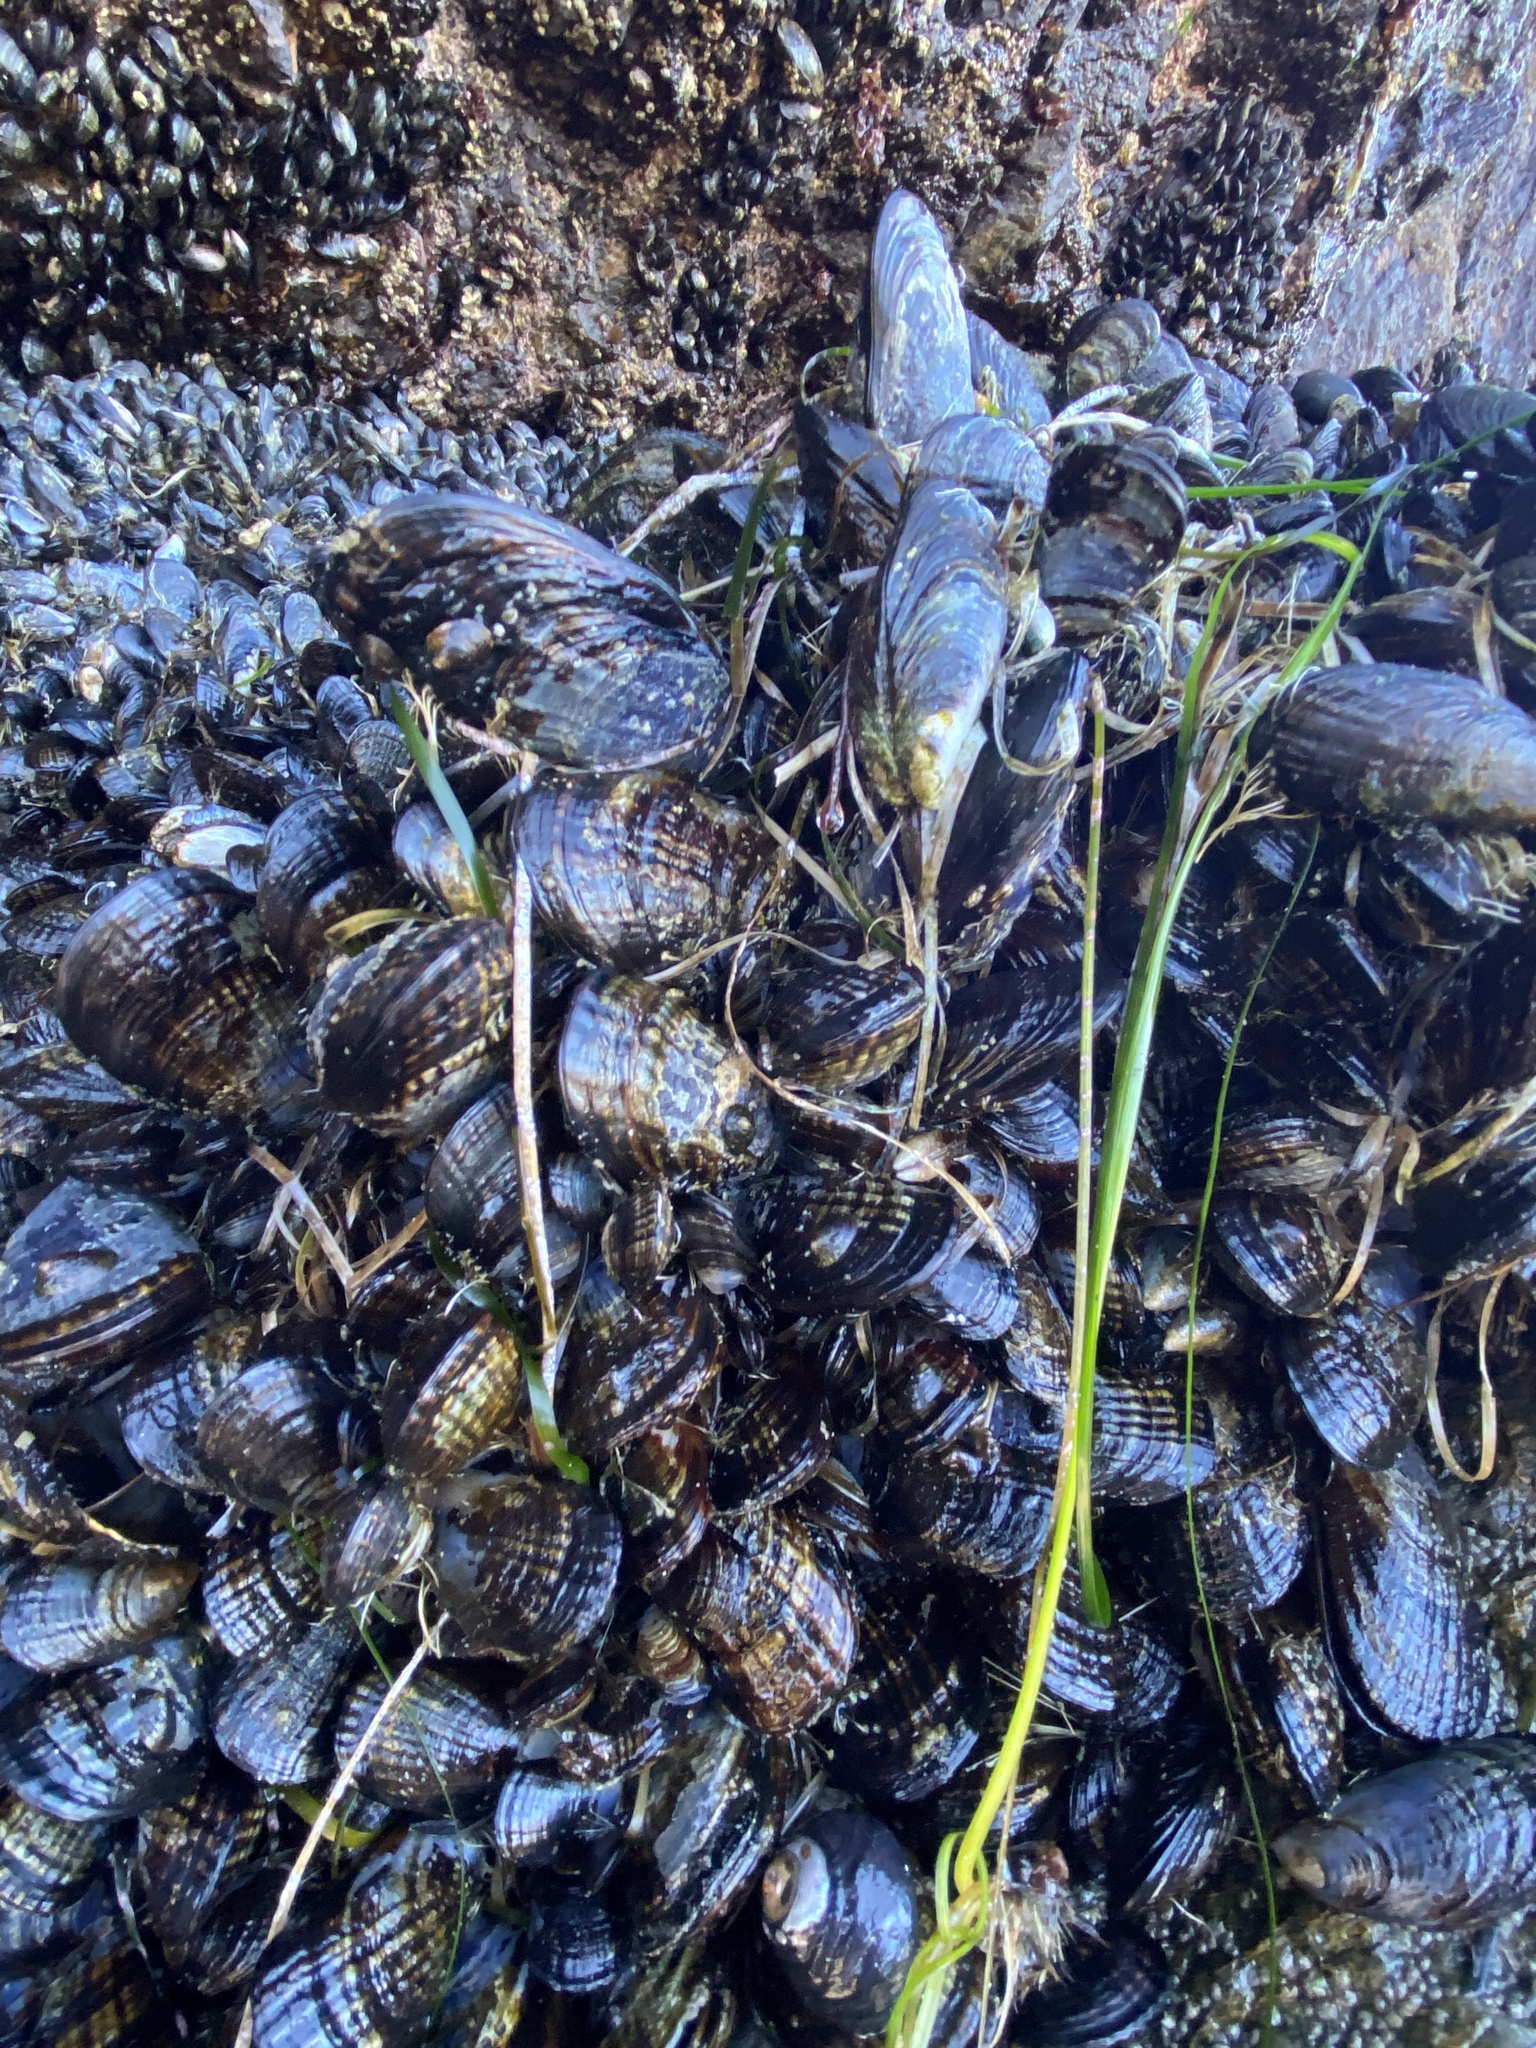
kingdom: Animalia
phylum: Mollusca
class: Bivalvia
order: Mytilida
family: Mytilidae
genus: Mytilus
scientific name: Mytilus californianus
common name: California mussel
